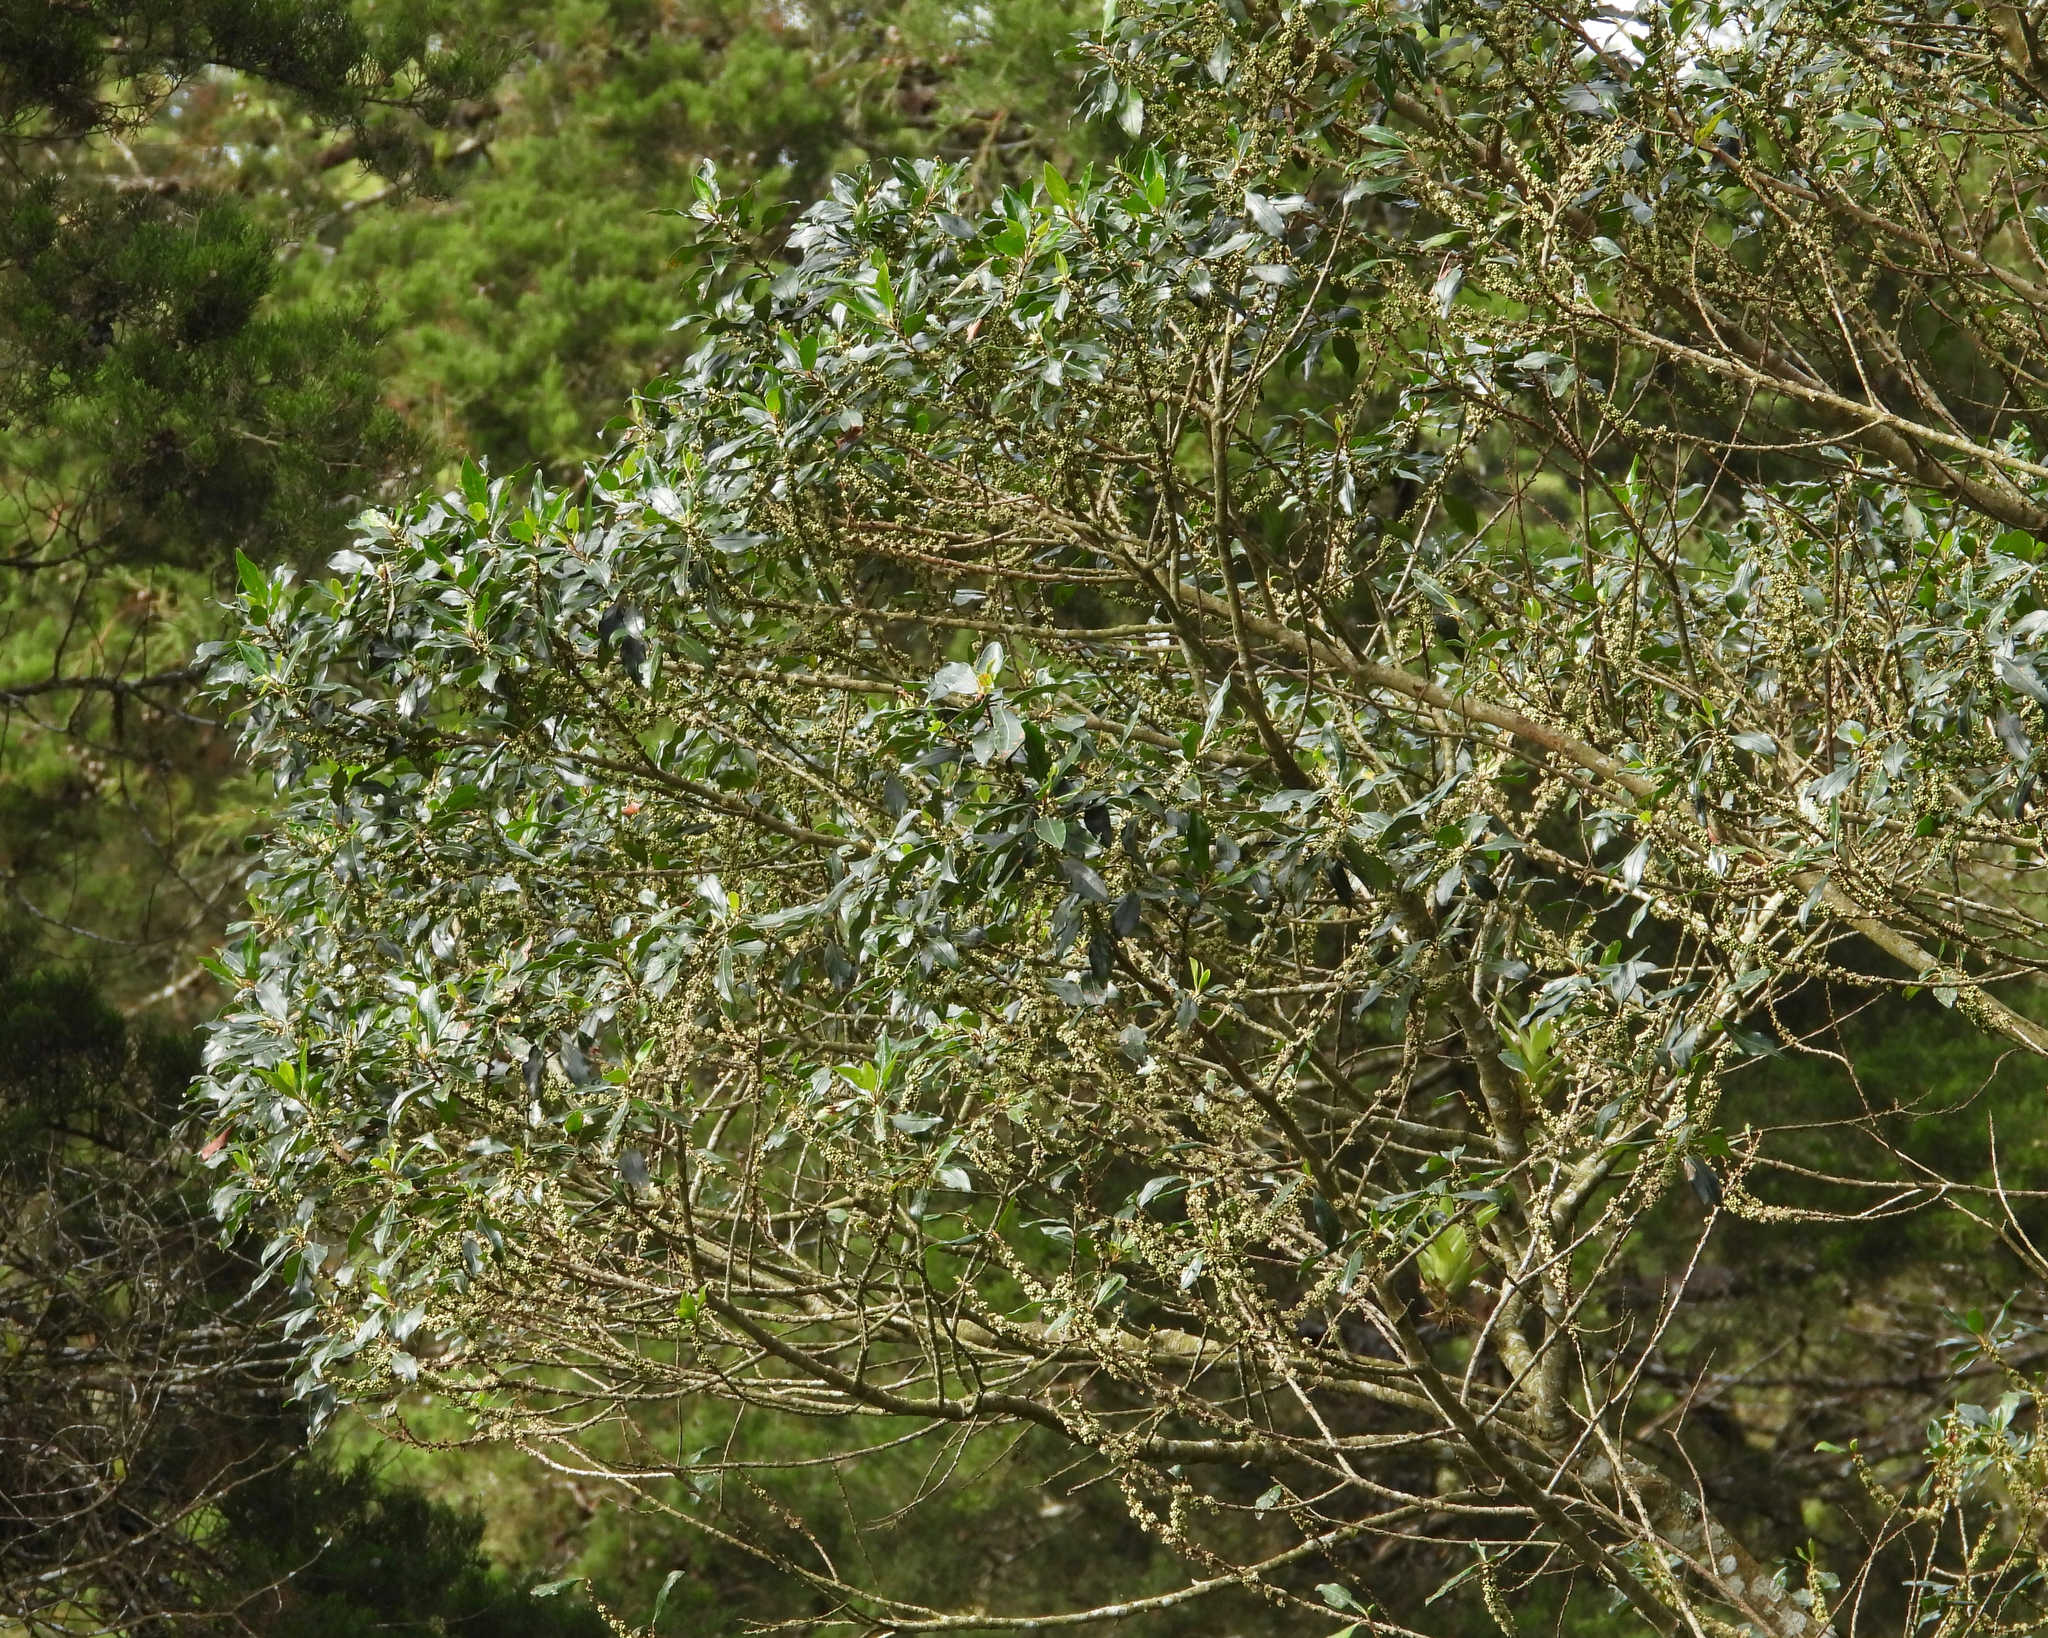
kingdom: Animalia
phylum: Chordata
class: Aves
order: Apodiformes
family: Trochilidae
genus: Saucerottia
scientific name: Saucerottia cyanocephala
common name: Azure-crowned hummingbird
